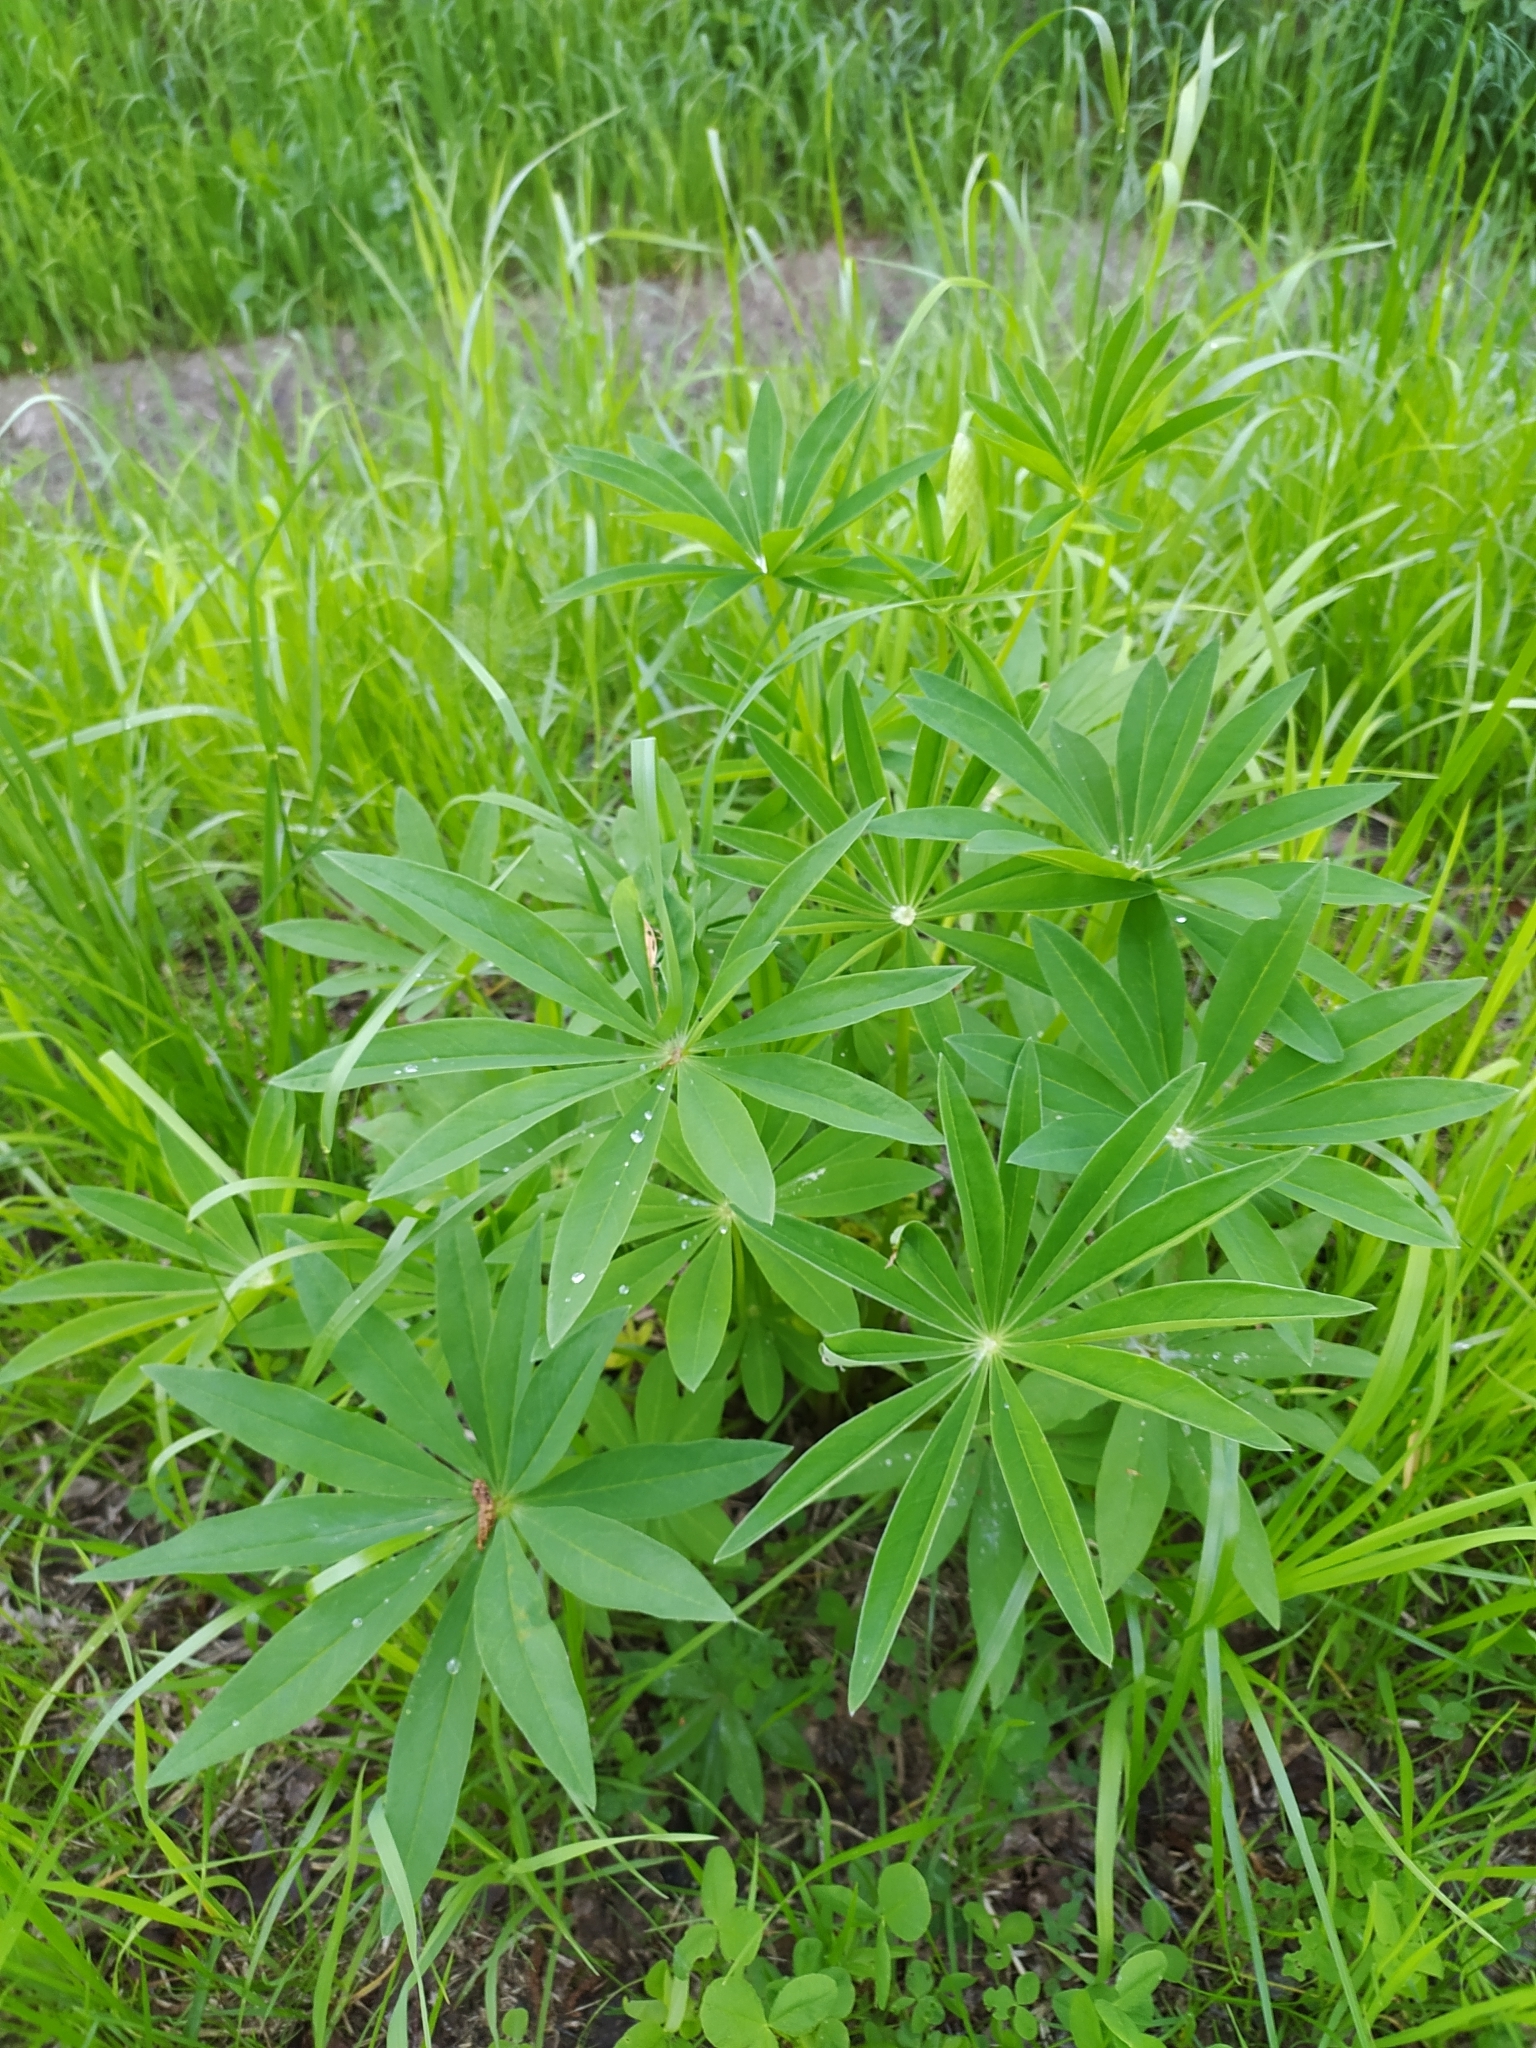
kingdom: Plantae
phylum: Tracheophyta
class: Magnoliopsida
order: Fabales
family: Fabaceae
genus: Lupinus
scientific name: Lupinus polyphyllus
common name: Garden lupin
